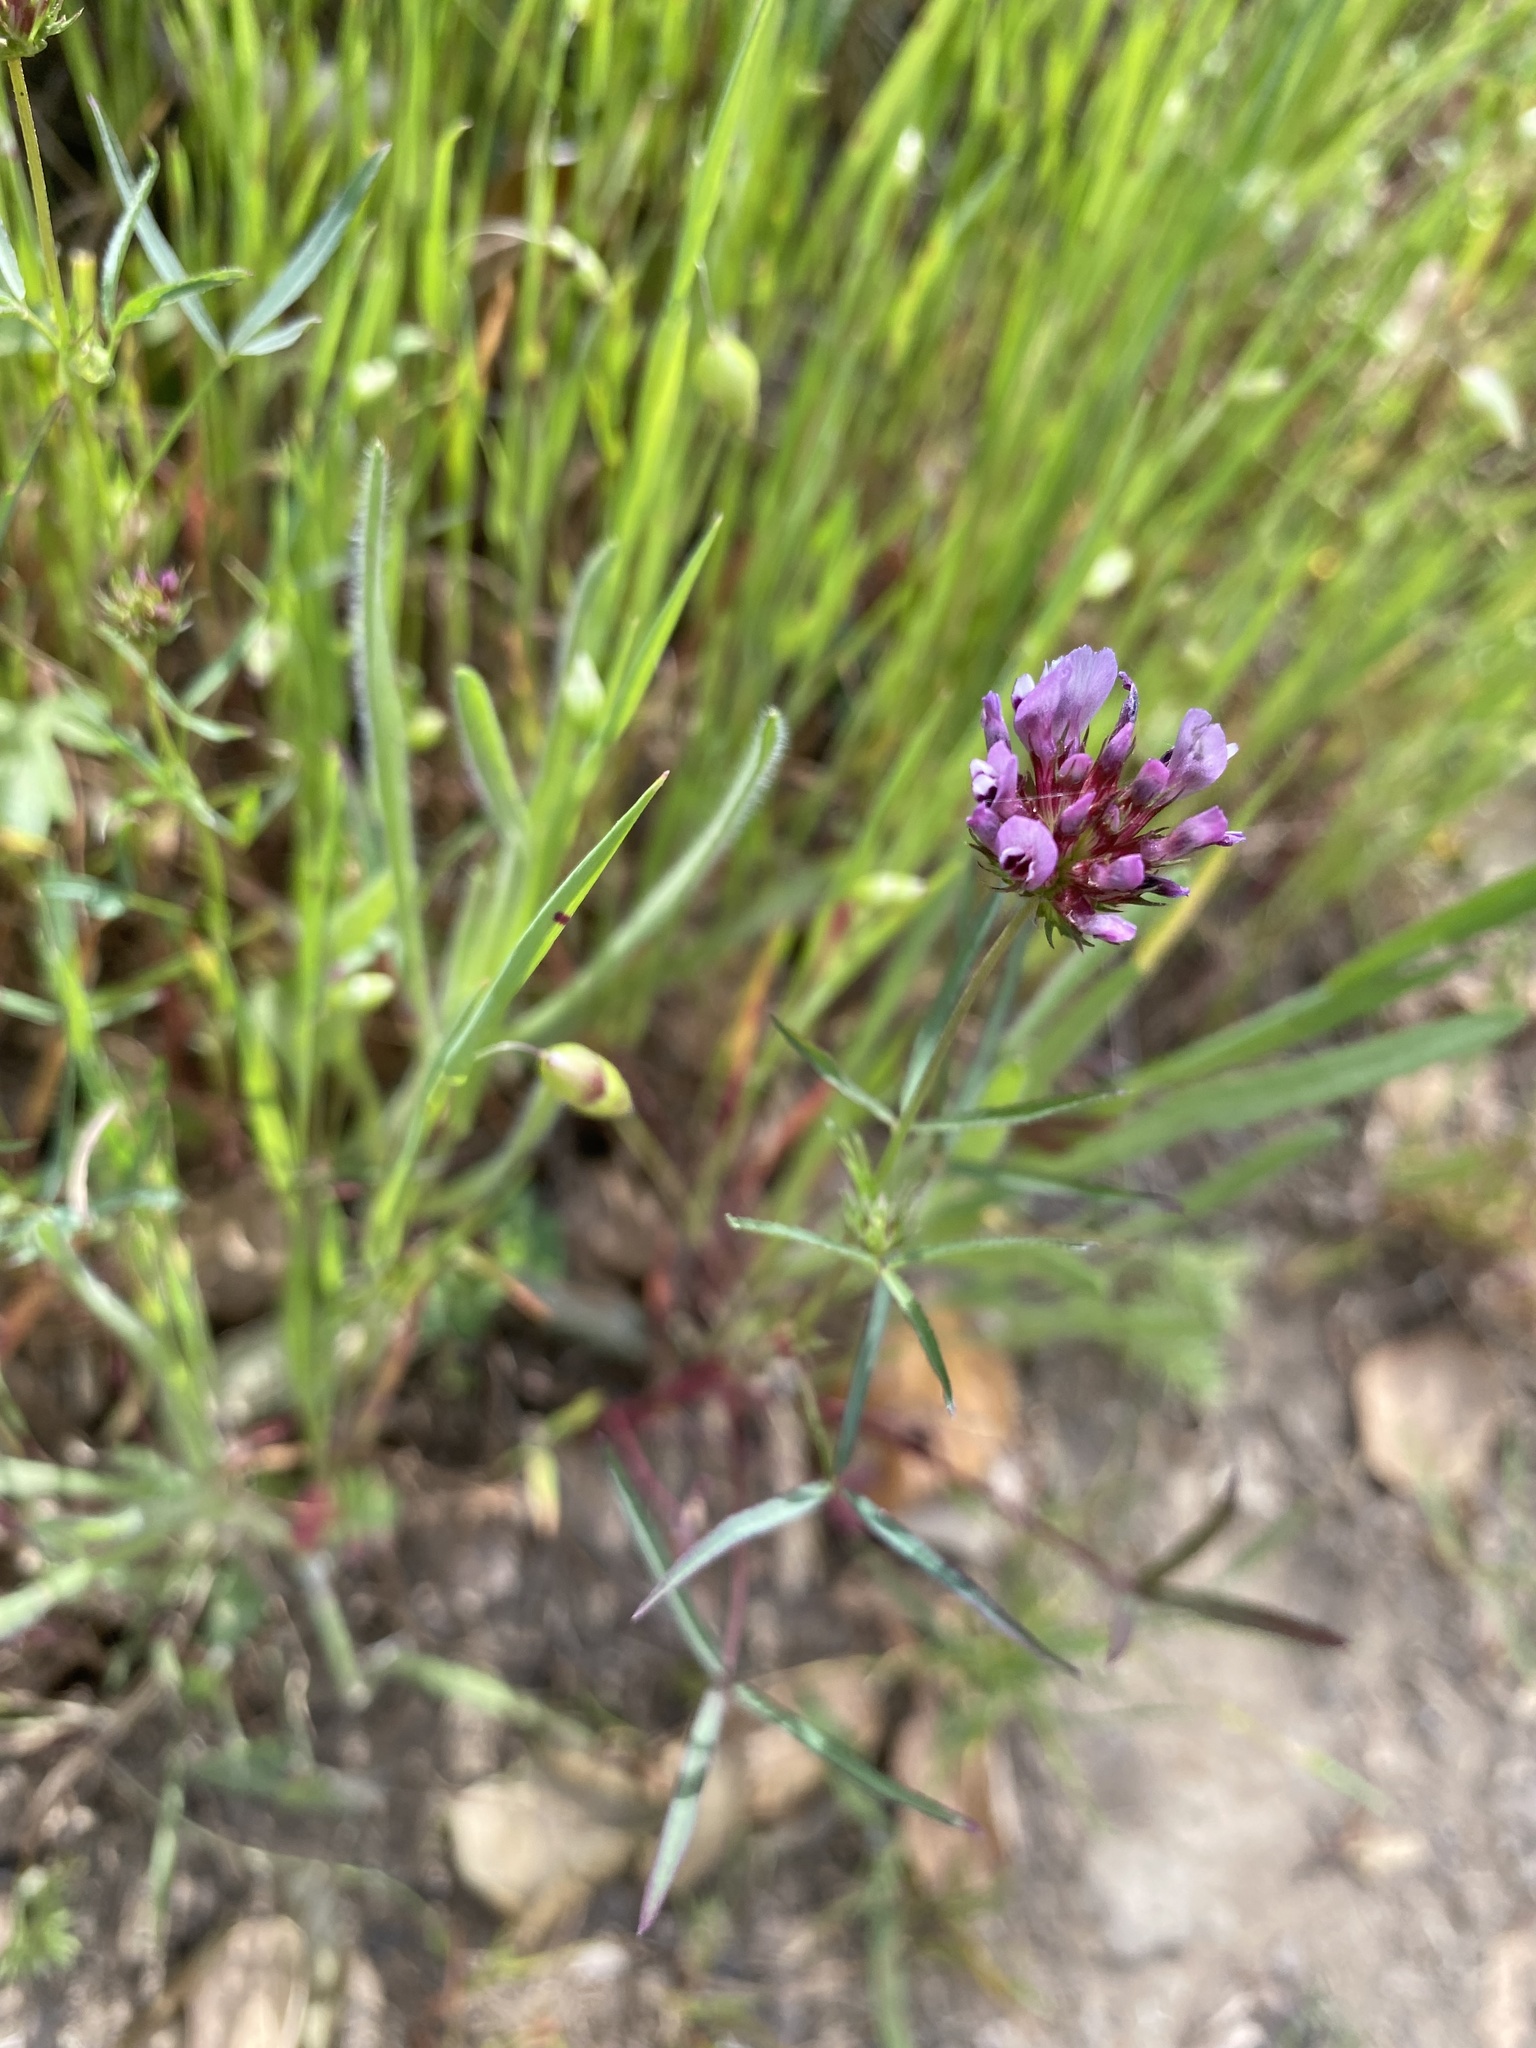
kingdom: Plantae
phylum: Tracheophyta
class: Magnoliopsida
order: Fabales
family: Fabaceae
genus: Trifolium
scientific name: Trifolium willdenovii
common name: Tomcat clover
